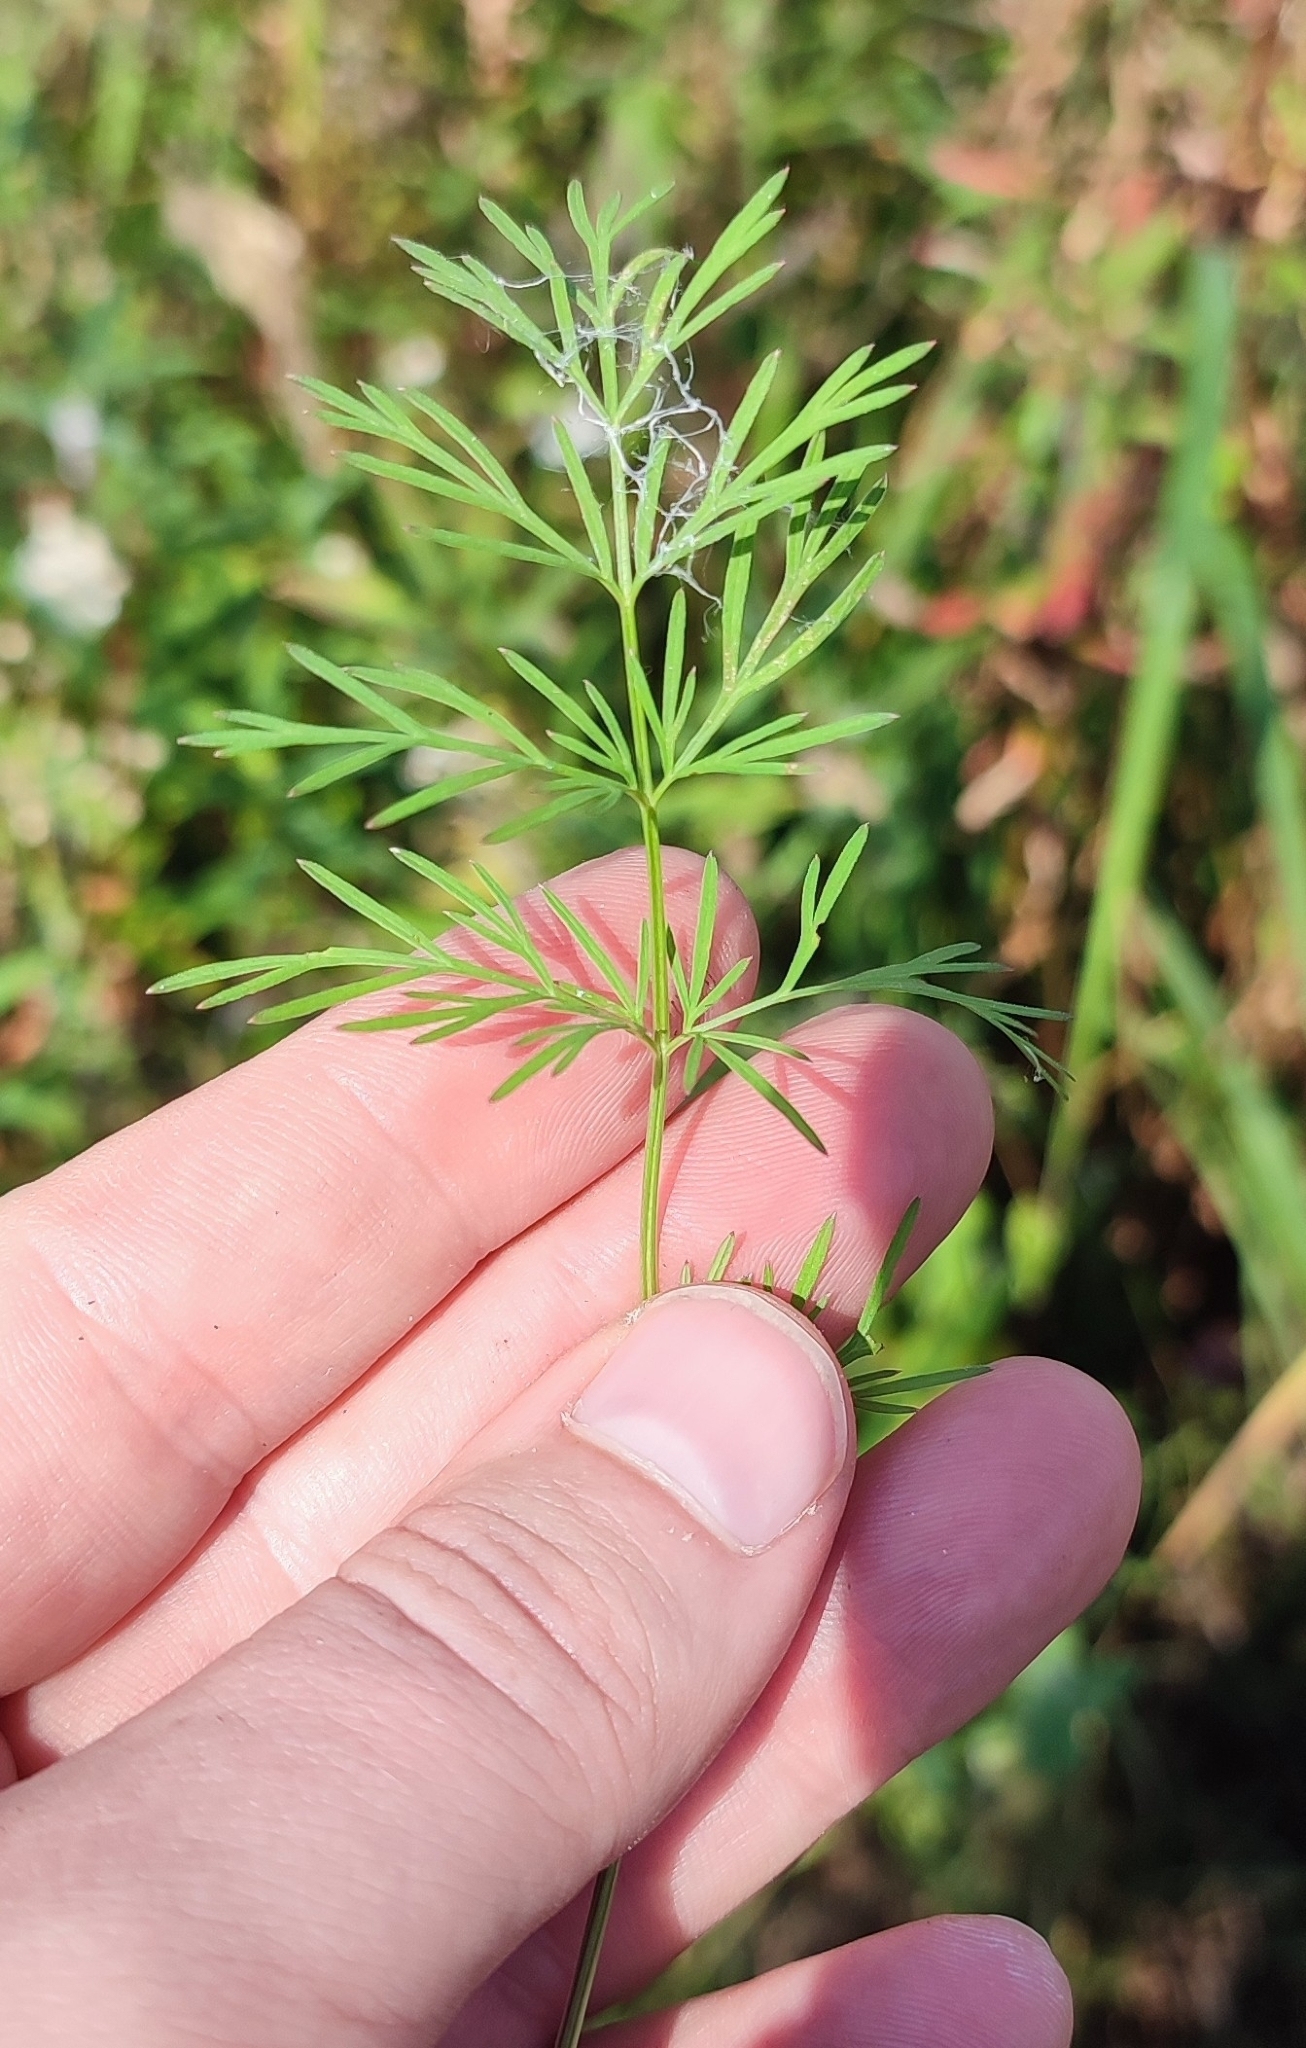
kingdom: Plantae
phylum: Tracheophyta
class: Magnoliopsida
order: Apiales
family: Apiaceae
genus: Kadenia
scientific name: Kadenia dubia
